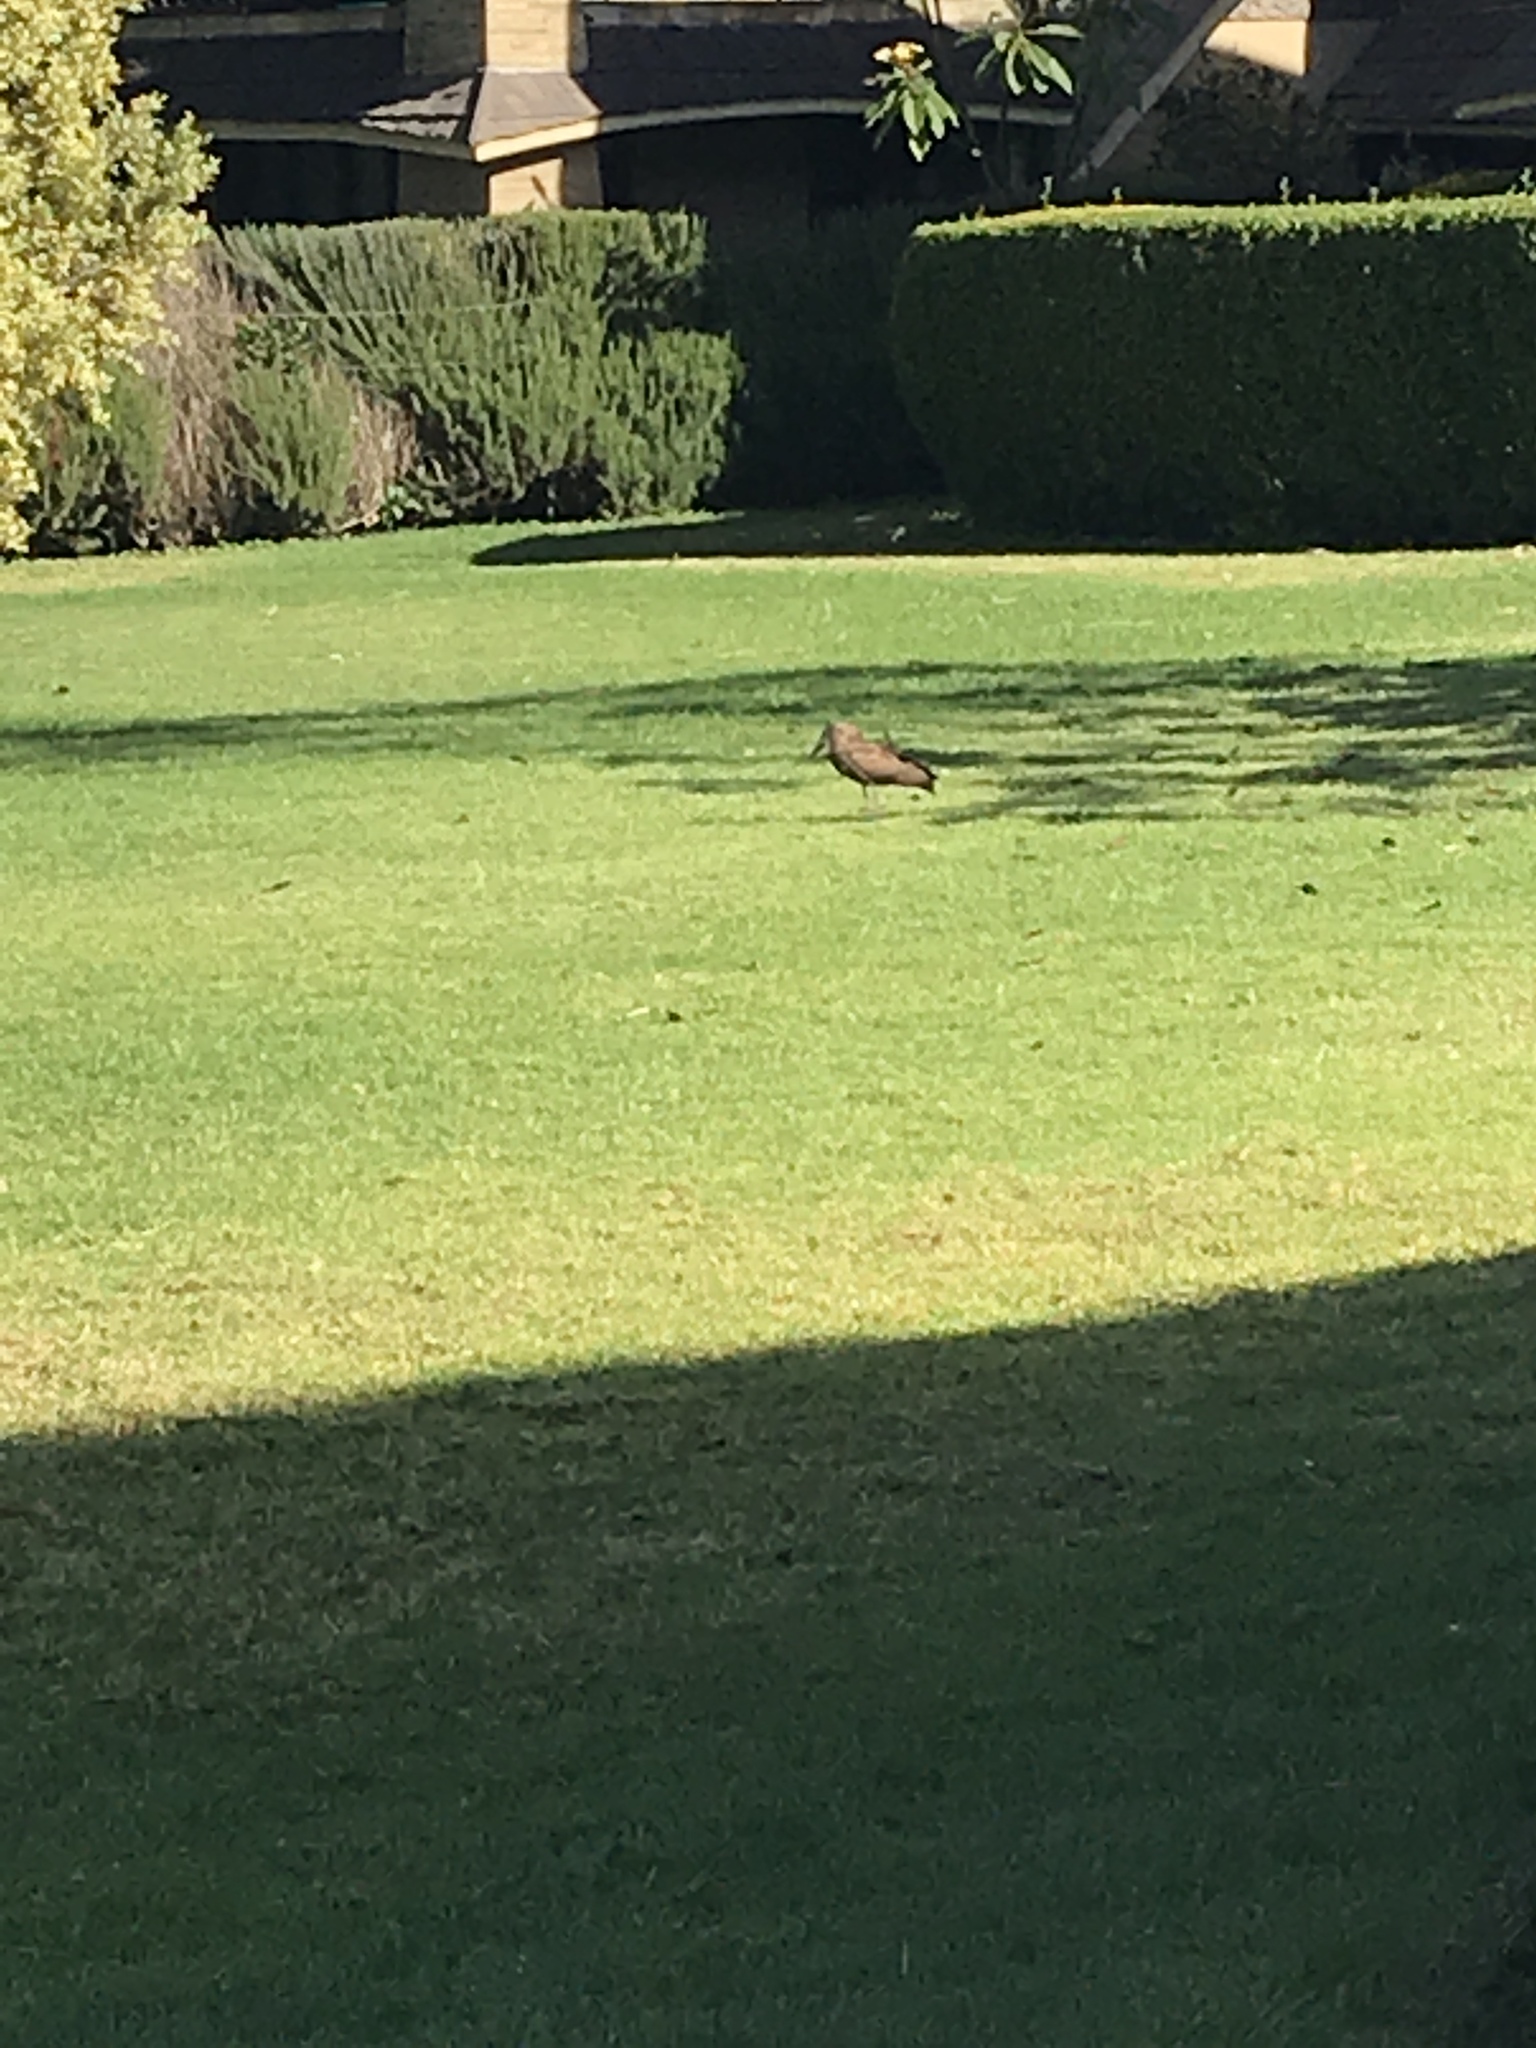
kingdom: Animalia
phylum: Chordata
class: Aves
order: Pelecaniformes
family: Scopidae
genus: Scopus
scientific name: Scopus umbretta
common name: Hamerkop
